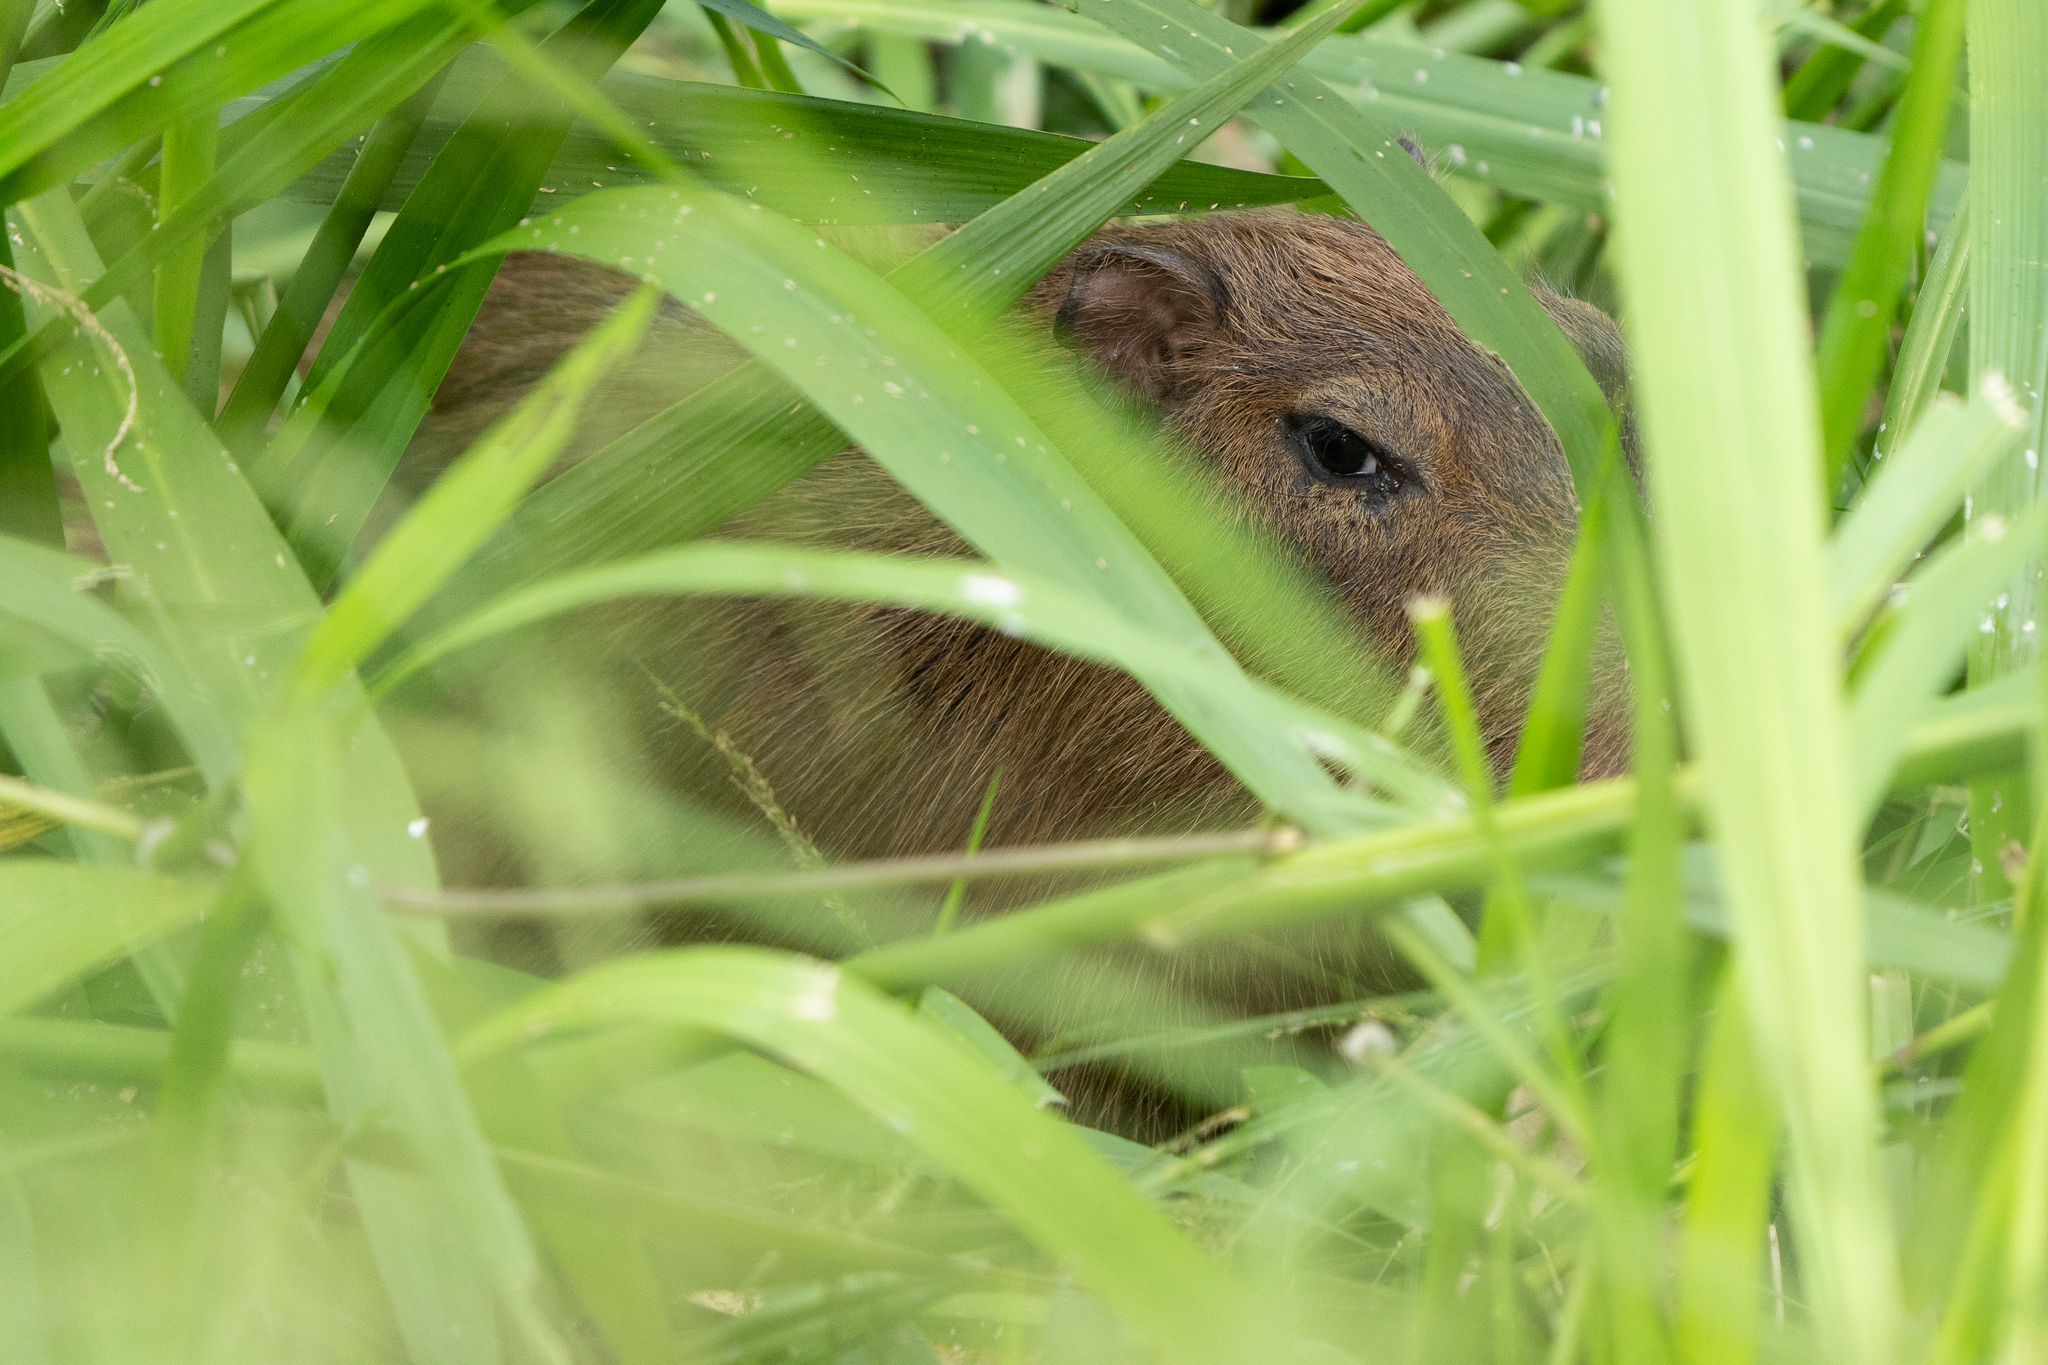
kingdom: Animalia
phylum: Chordata
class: Mammalia
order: Rodentia
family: Caviidae
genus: Hydrochoerus
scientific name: Hydrochoerus isthmius
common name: Lesser capybara
